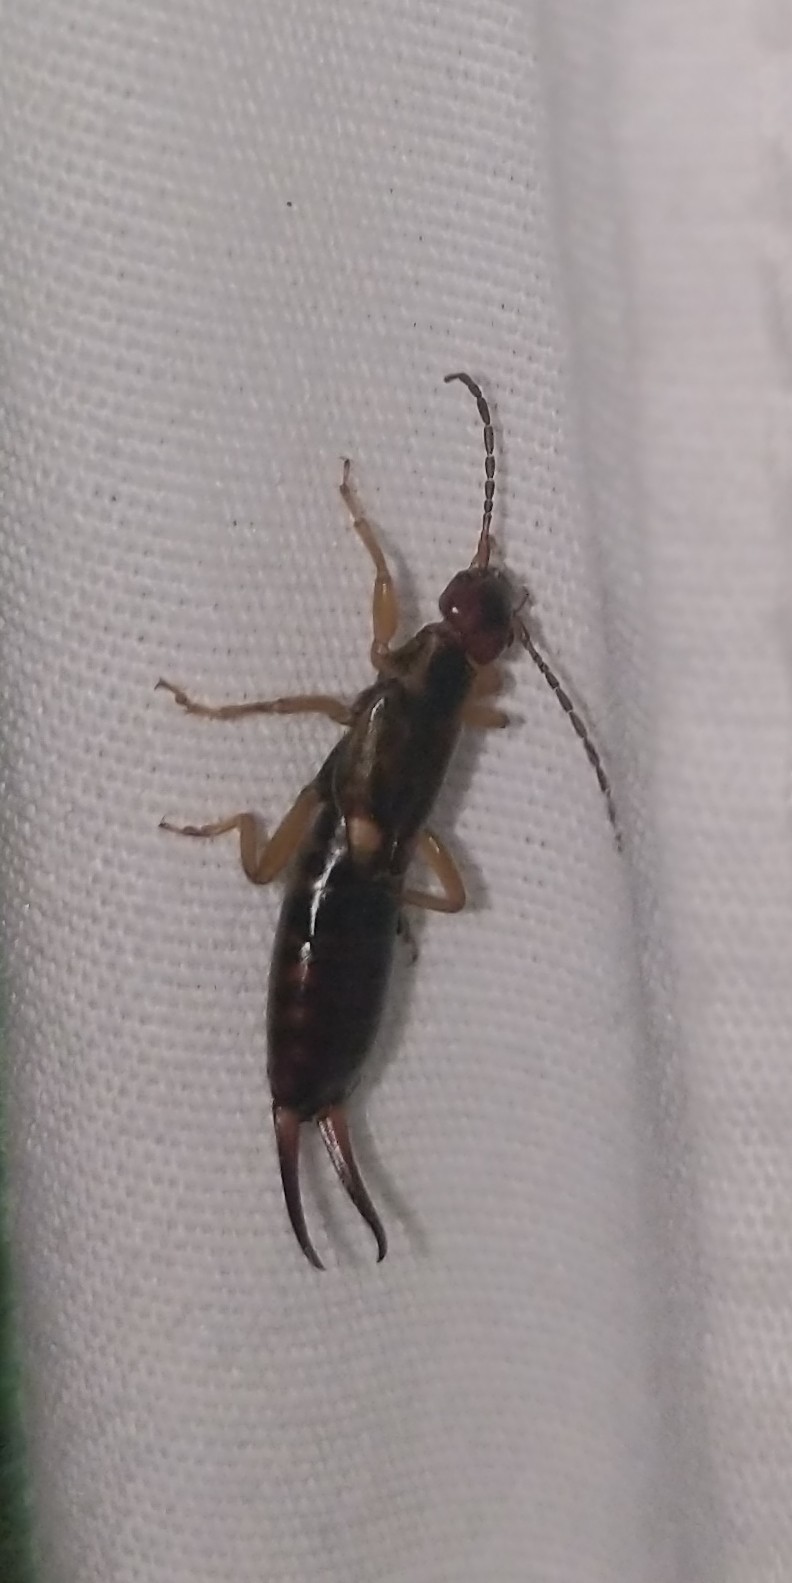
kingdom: Animalia
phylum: Arthropoda
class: Insecta
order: Dermaptera
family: Forficulidae
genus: Forficula
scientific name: Forficula
